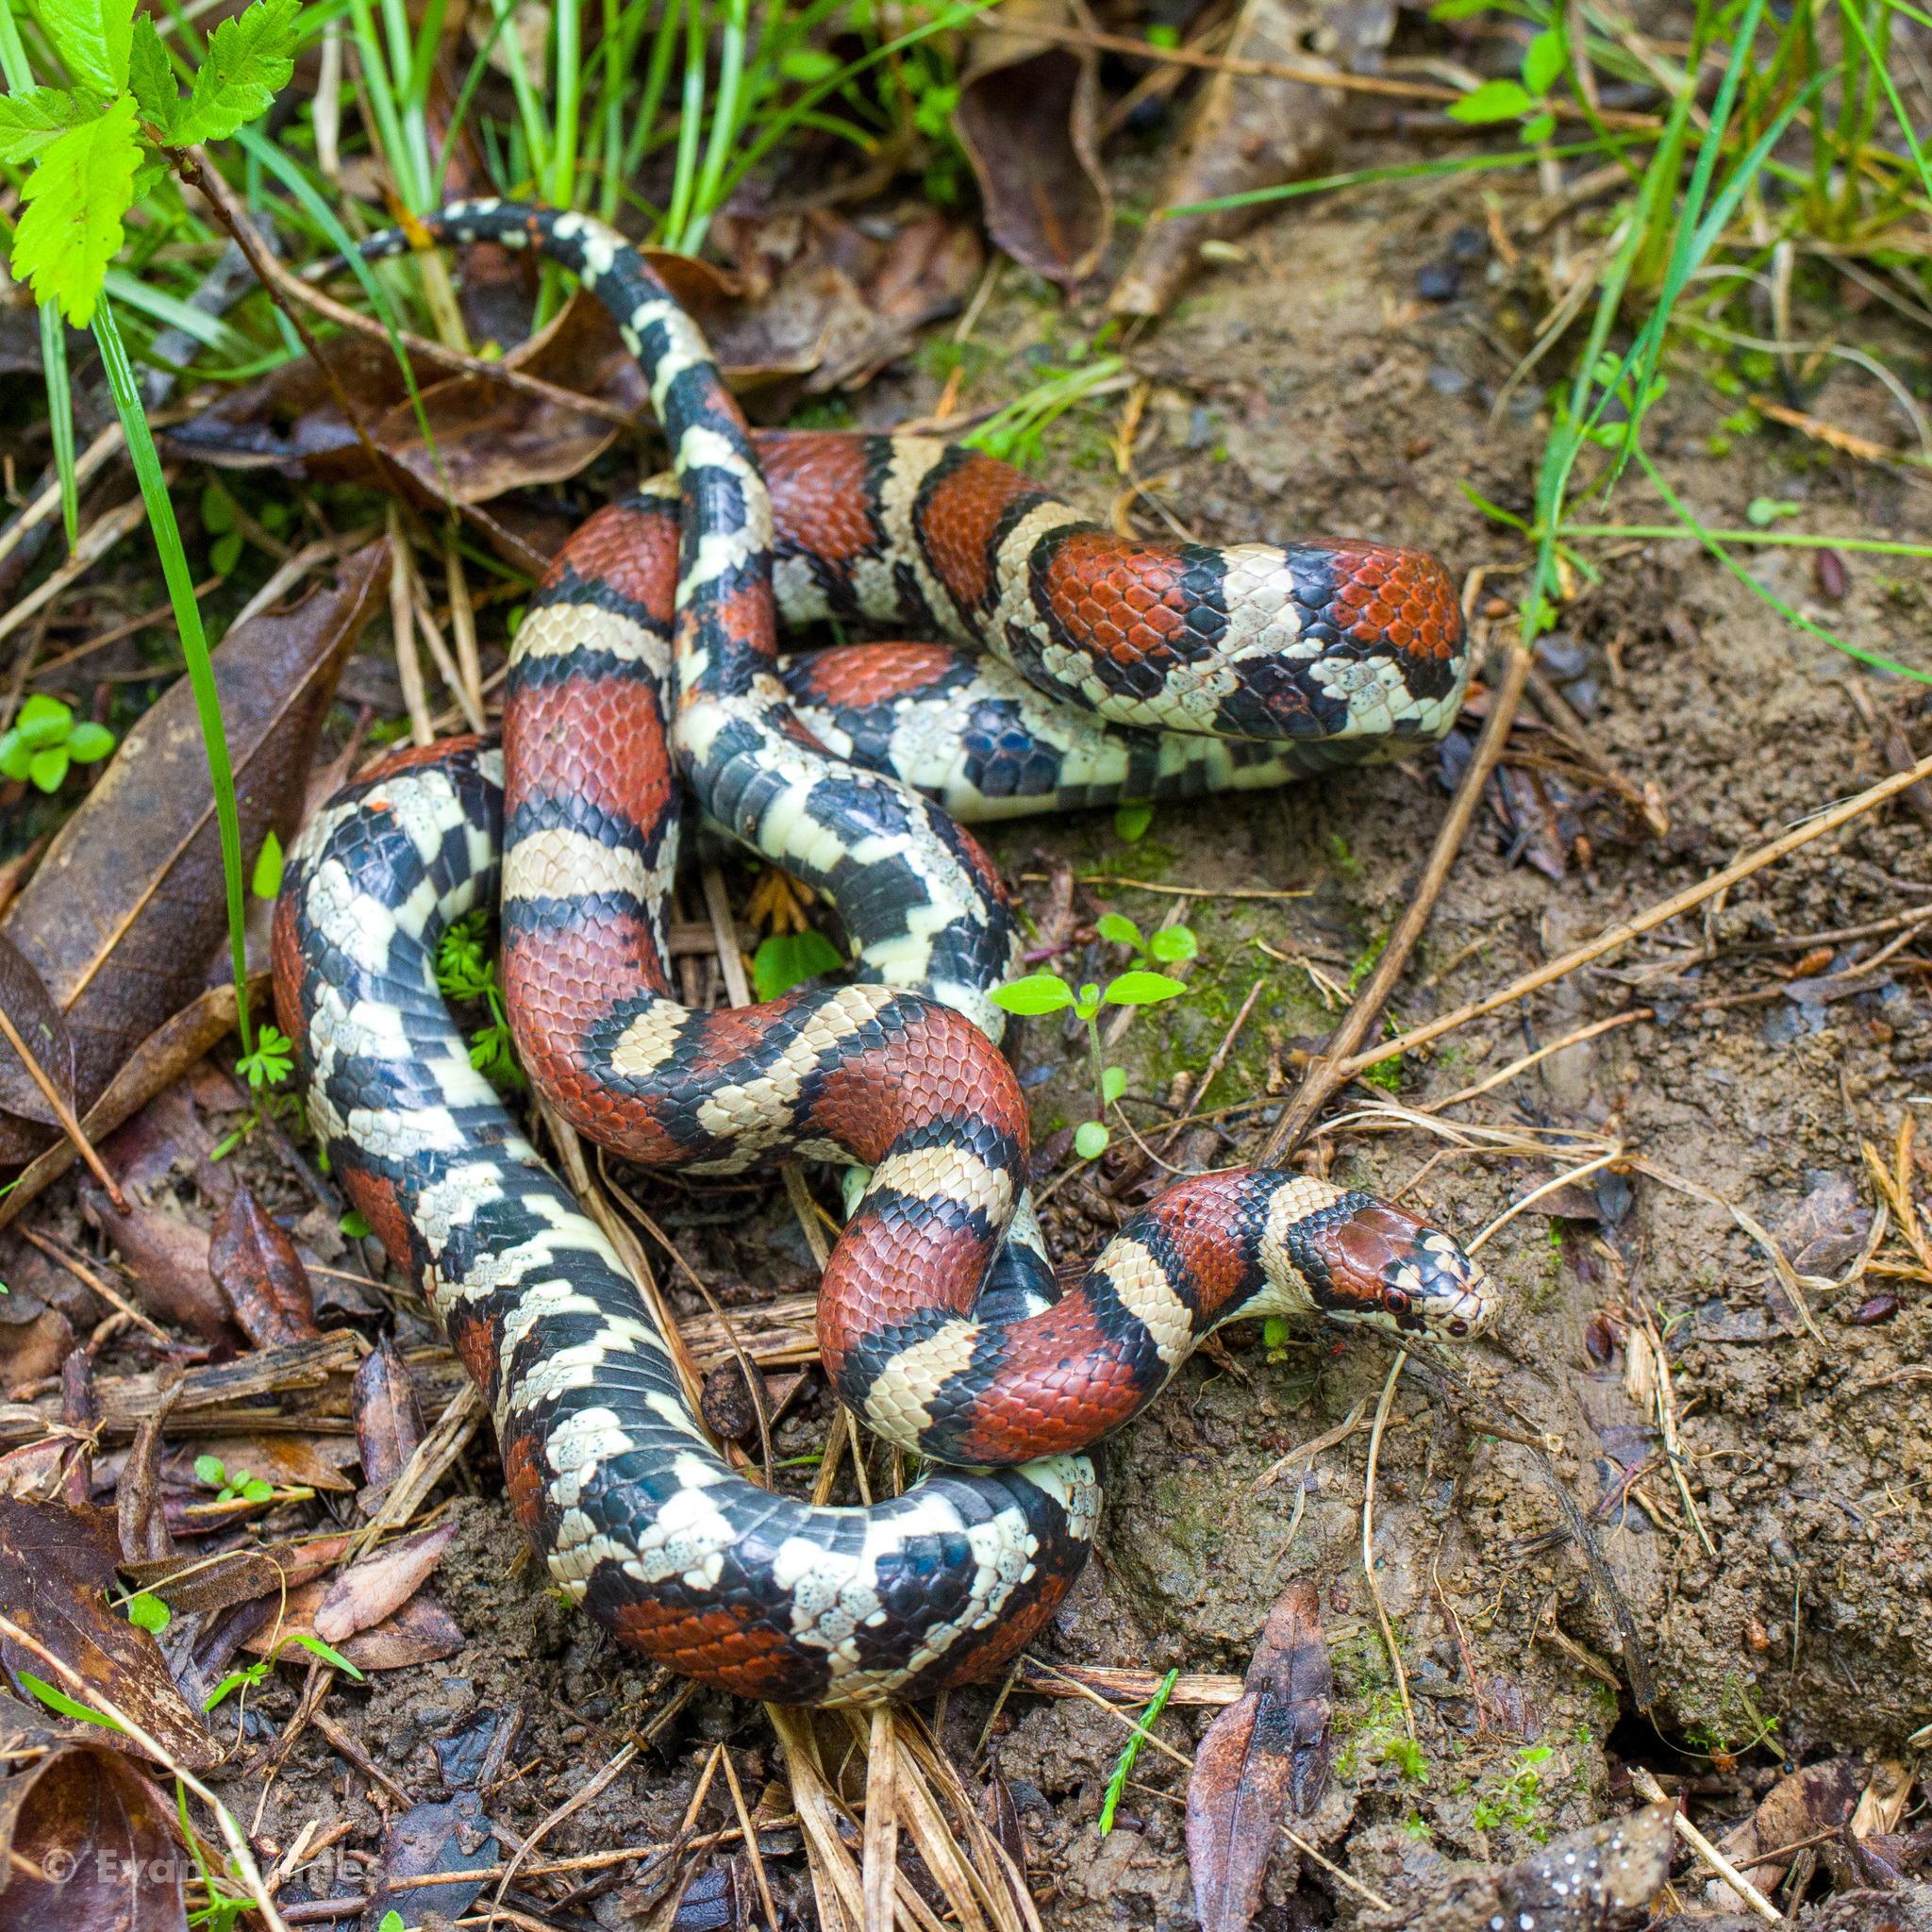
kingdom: Animalia
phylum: Chordata
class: Squamata
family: Colubridae
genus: Lampropeltis
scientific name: Lampropeltis triangulum
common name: Eastern milksnake
